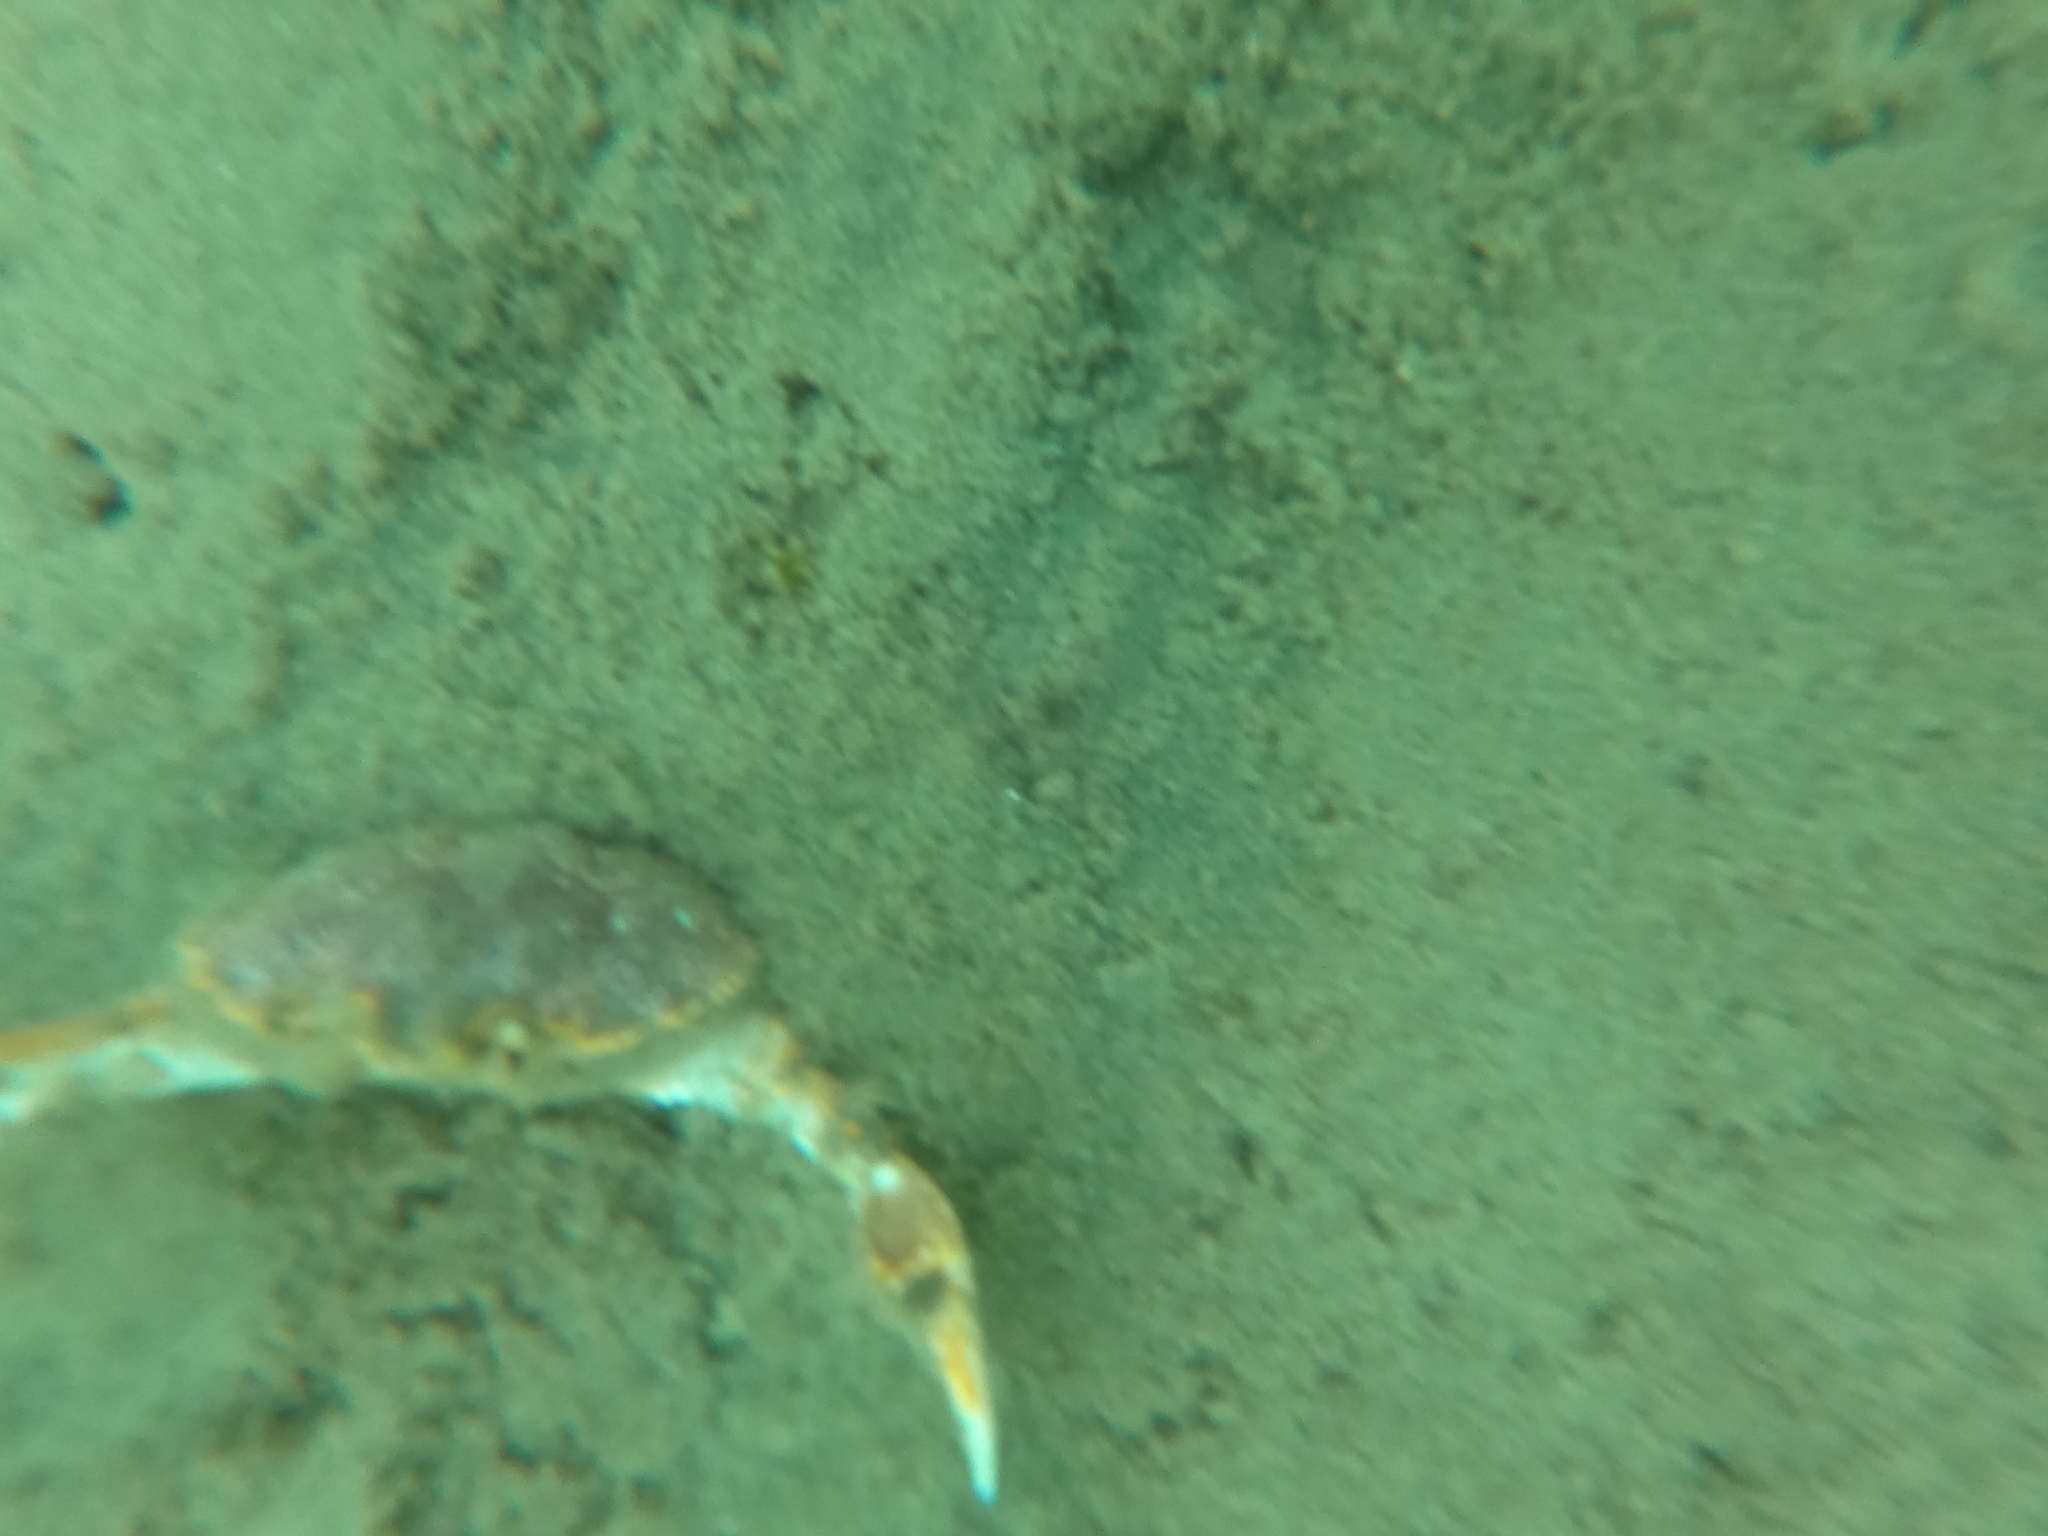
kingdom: Animalia
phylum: Arthropoda
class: Malacostraca
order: Decapoda
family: Trichopeltariidae
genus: Peltarion
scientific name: Peltarion spinulosum
